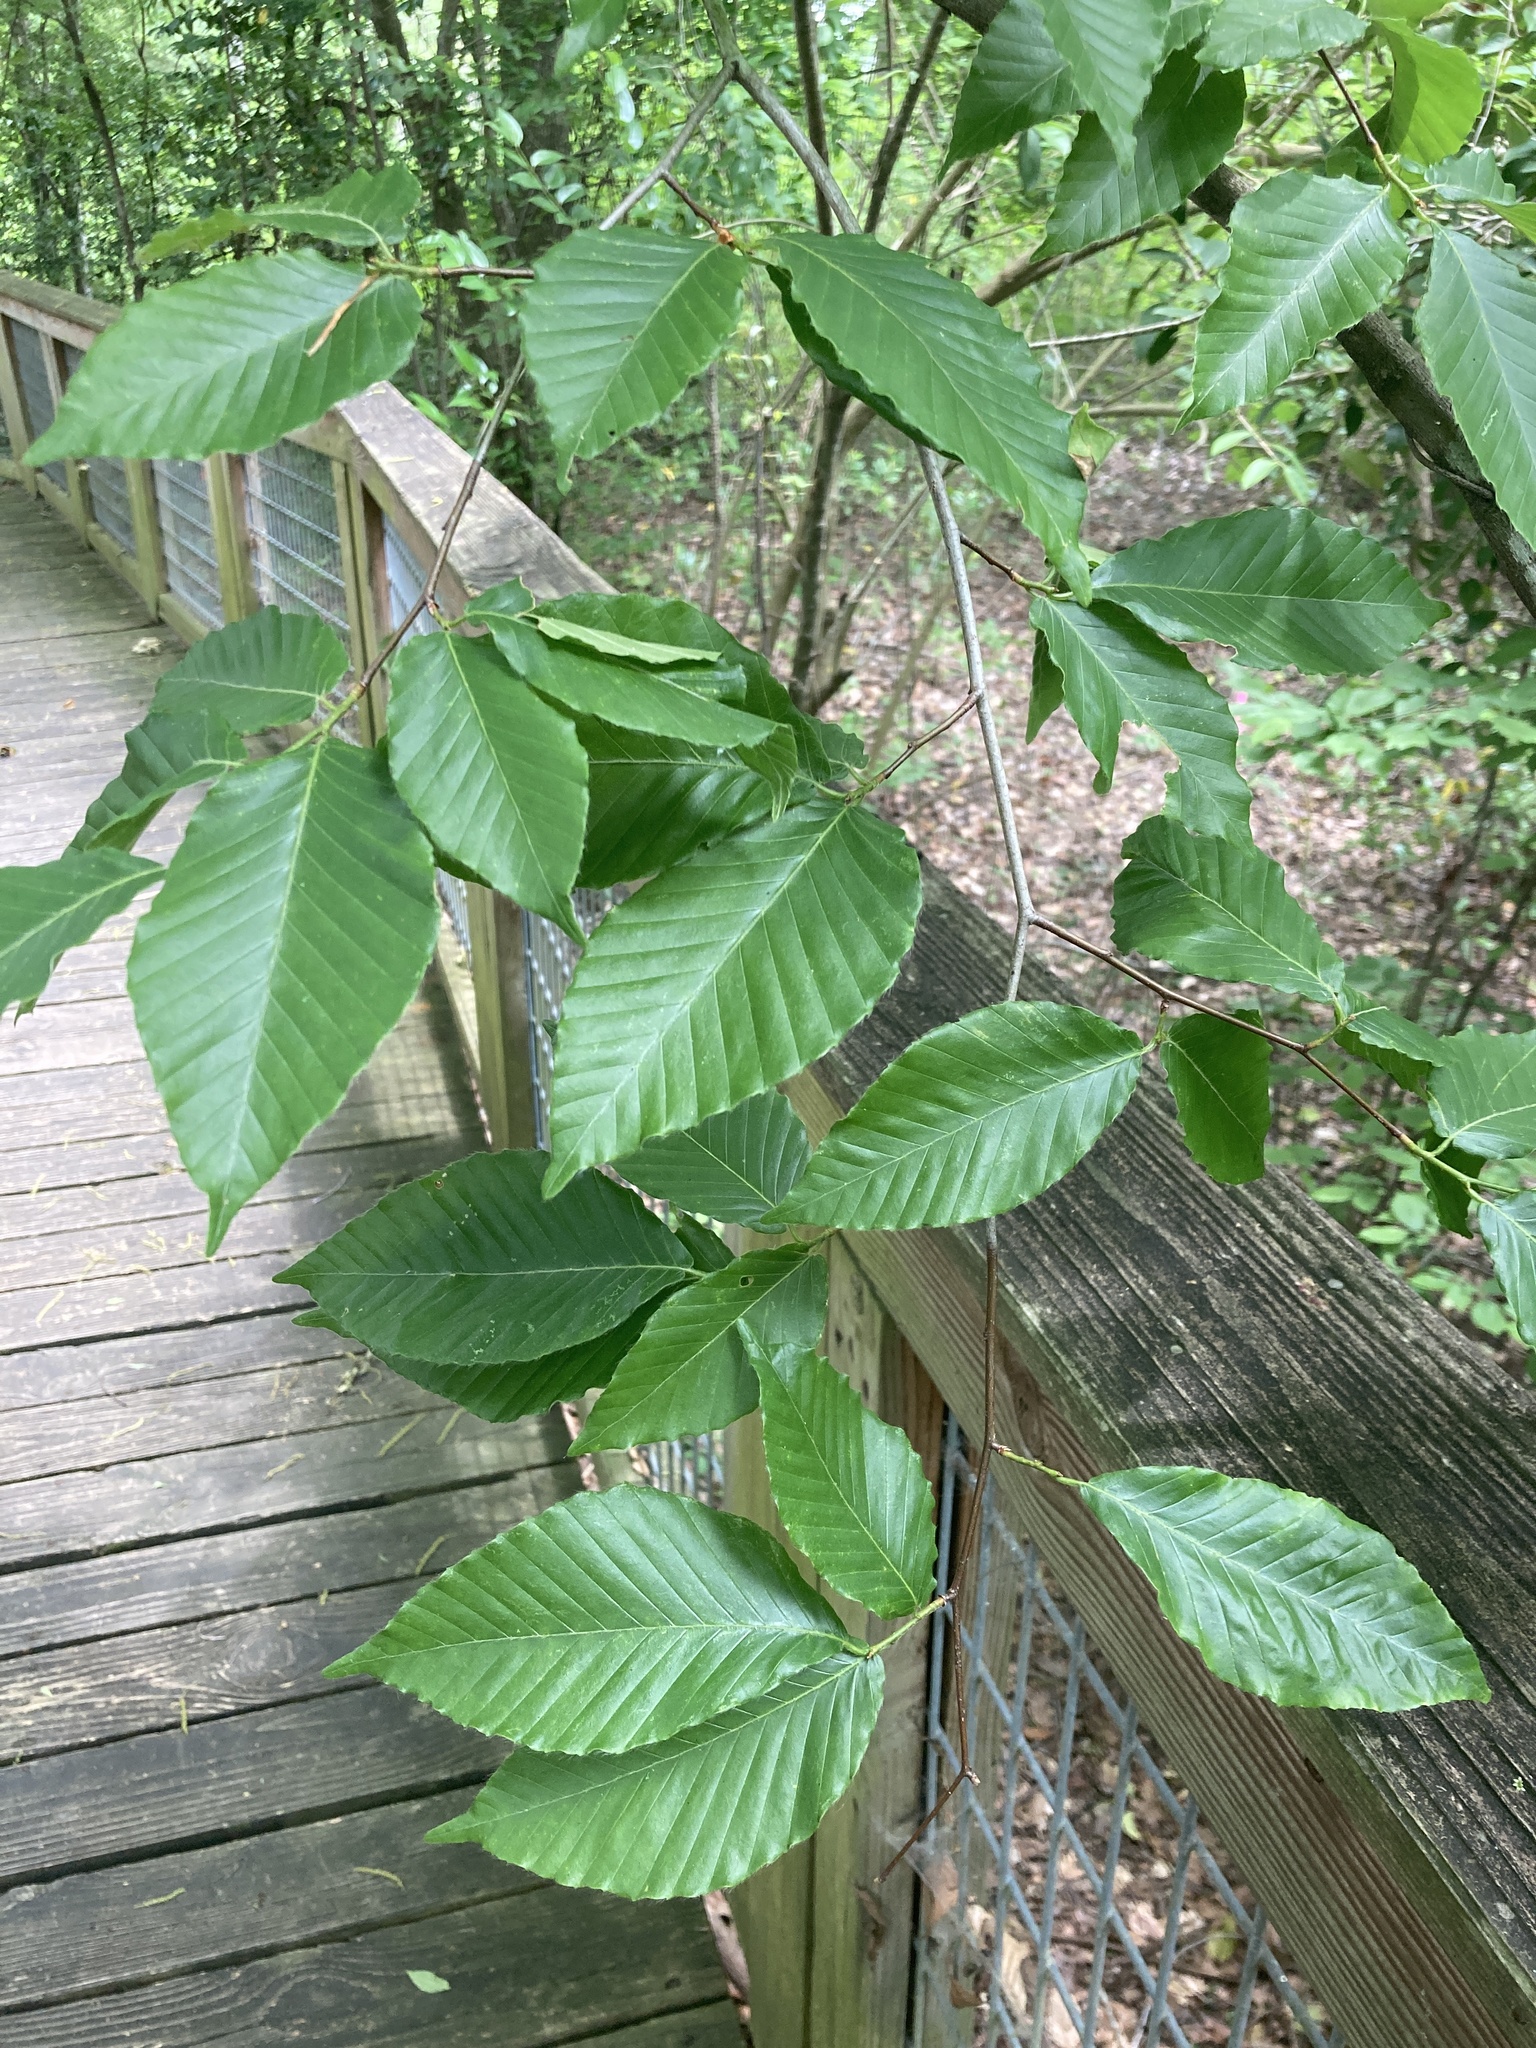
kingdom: Plantae
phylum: Tracheophyta
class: Magnoliopsida
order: Fagales
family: Fagaceae
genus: Fagus
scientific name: Fagus grandifolia
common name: American beech
